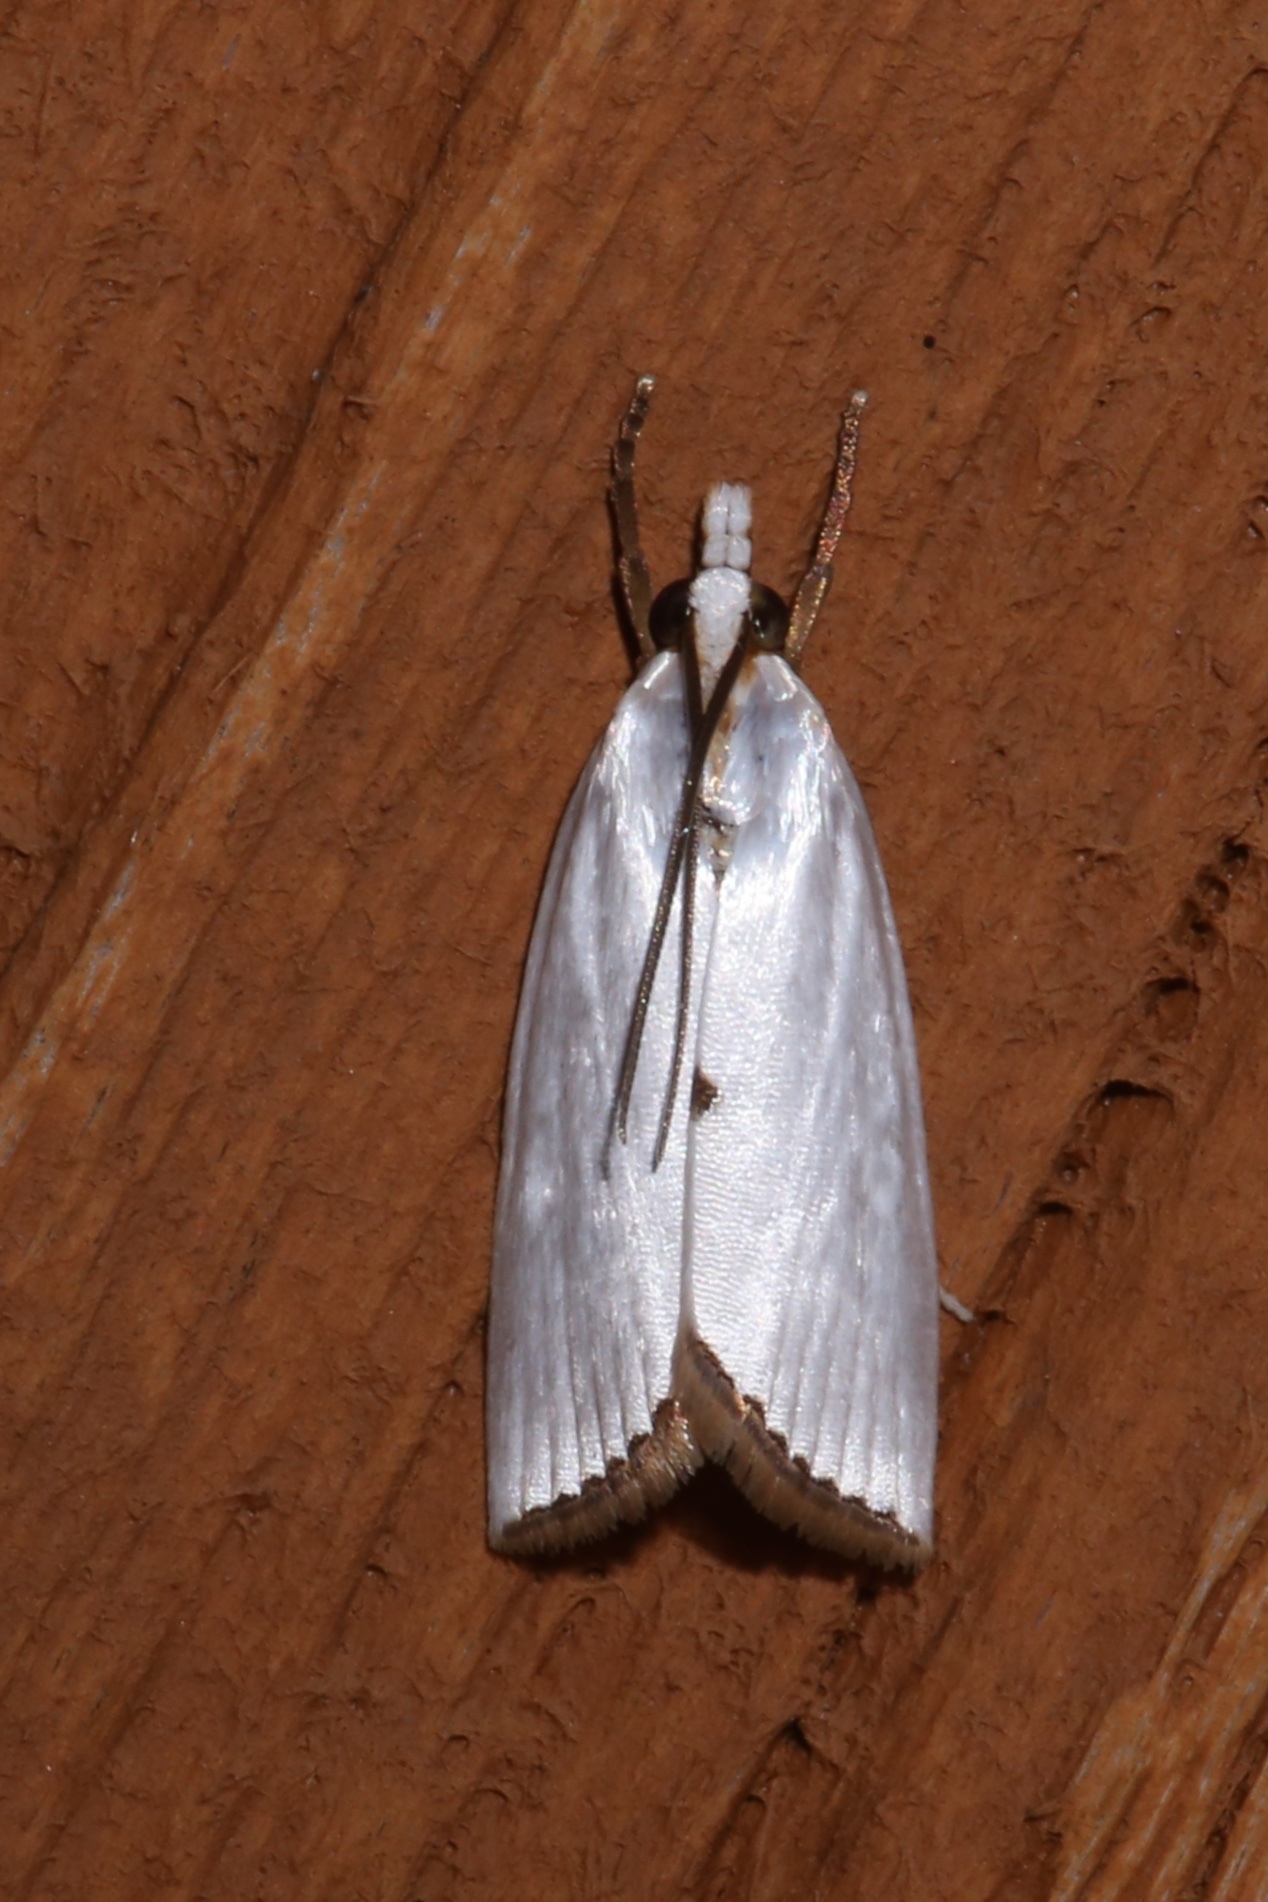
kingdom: Animalia
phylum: Arthropoda
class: Insecta
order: Lepidoptera
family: Crambidae
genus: Argyria
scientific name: Argyria nivalis
